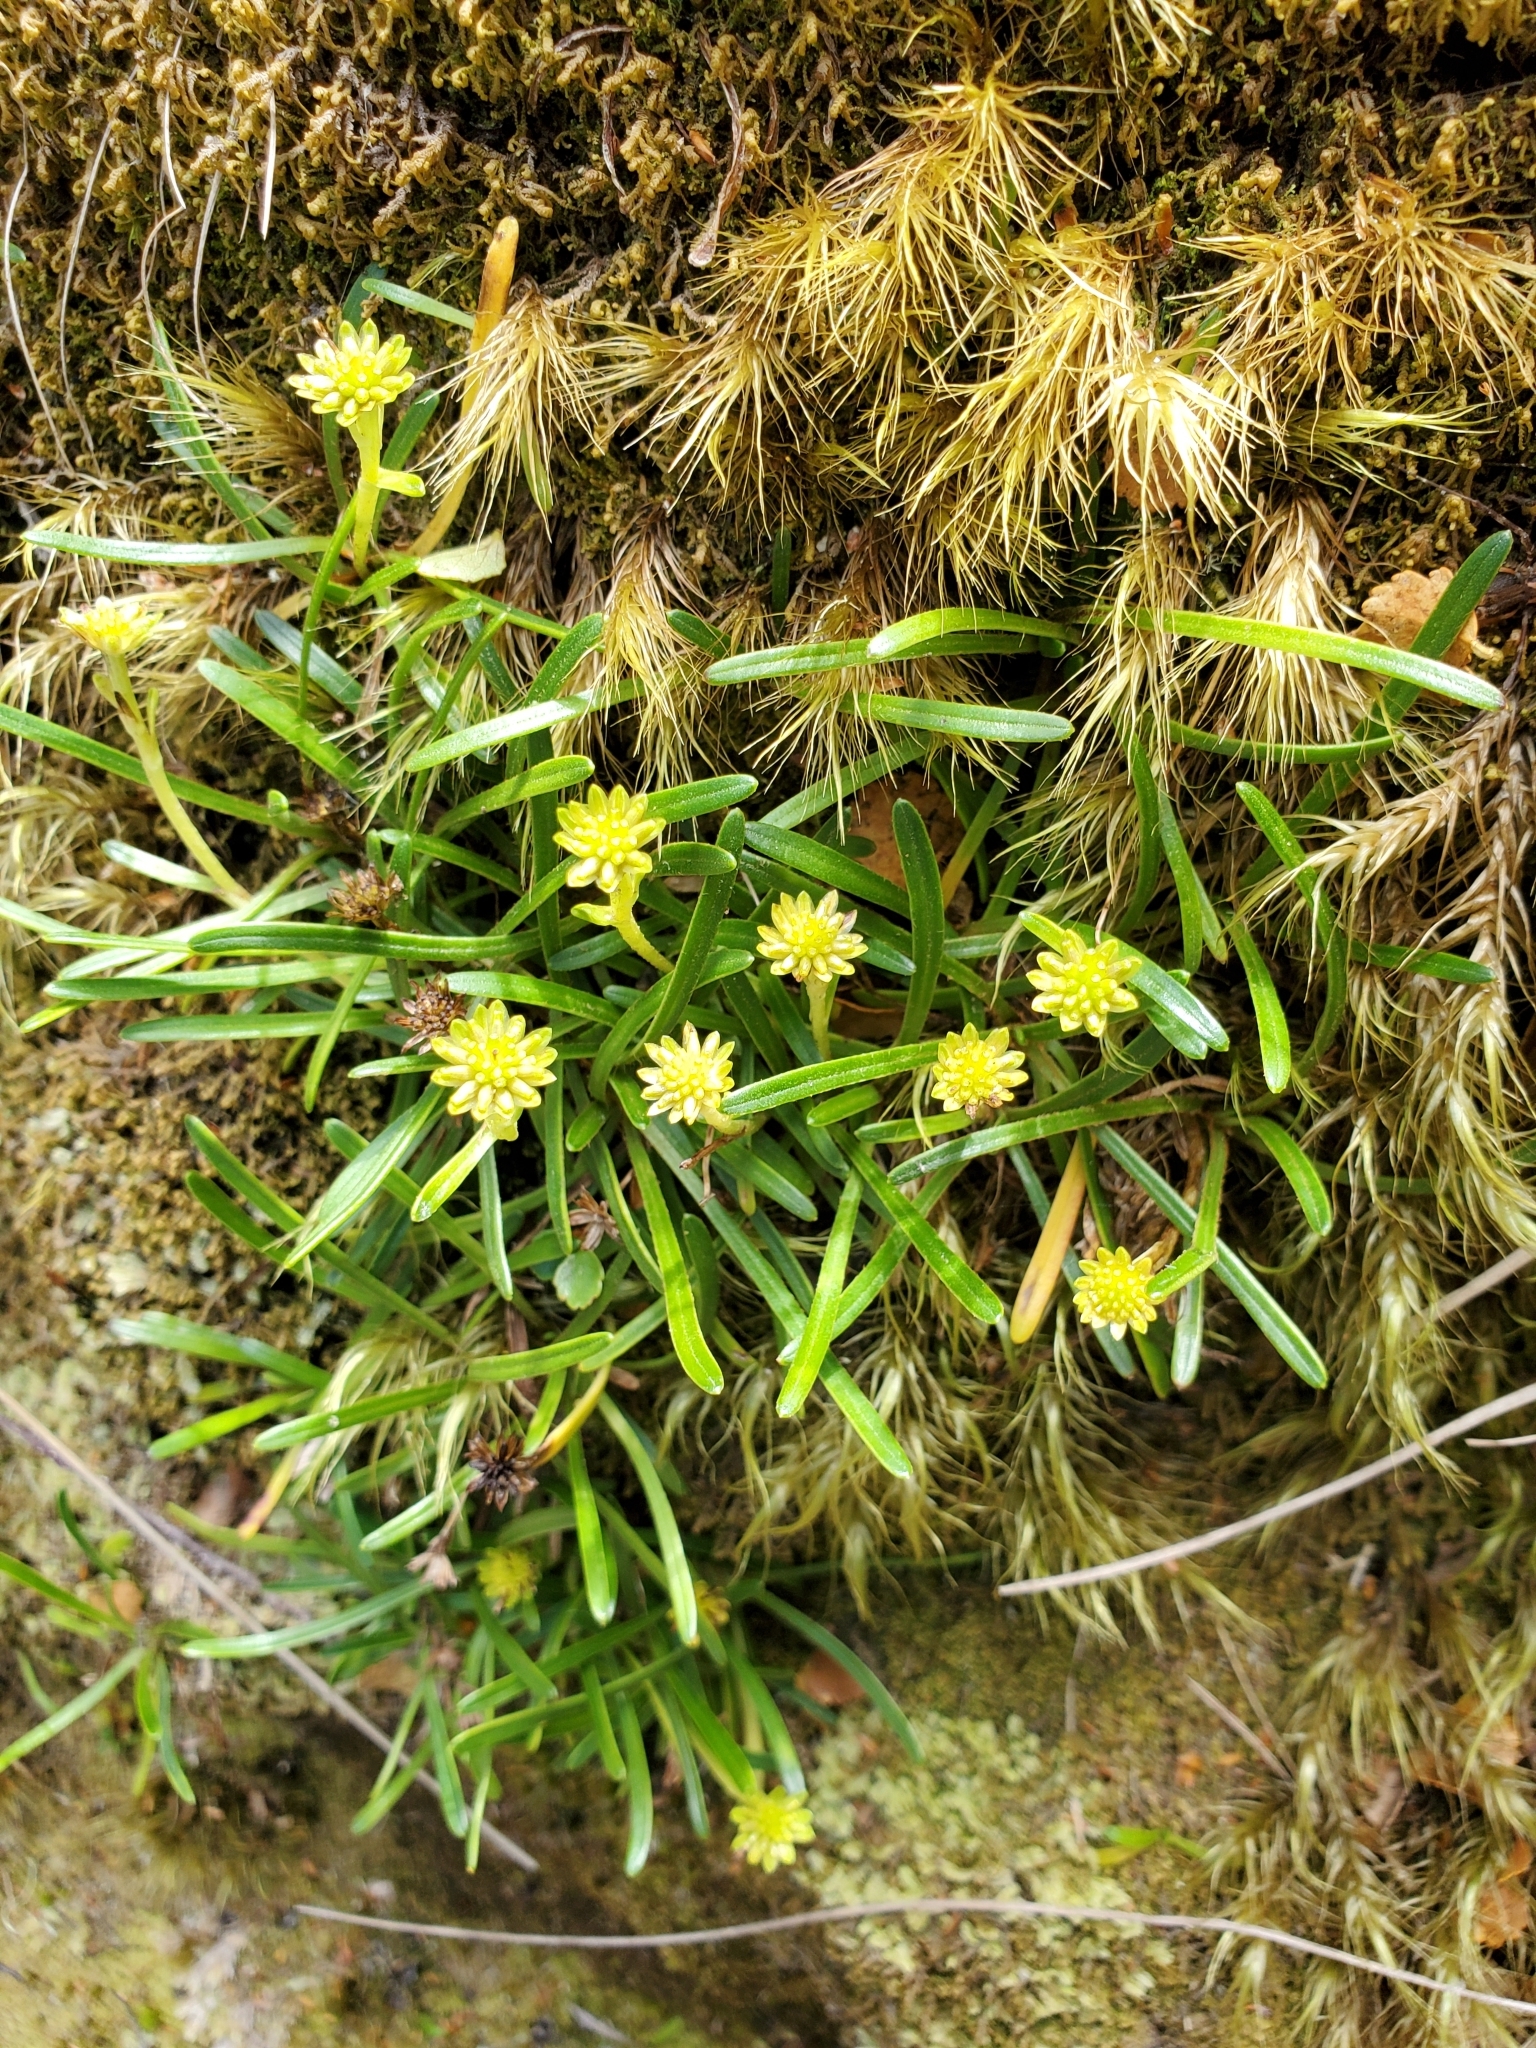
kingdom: Plantae
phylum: Tracheophyta
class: Magnoliopsida
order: Asterales
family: Asteraceae
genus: Abrotanella
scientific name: Abrotanella linearis
